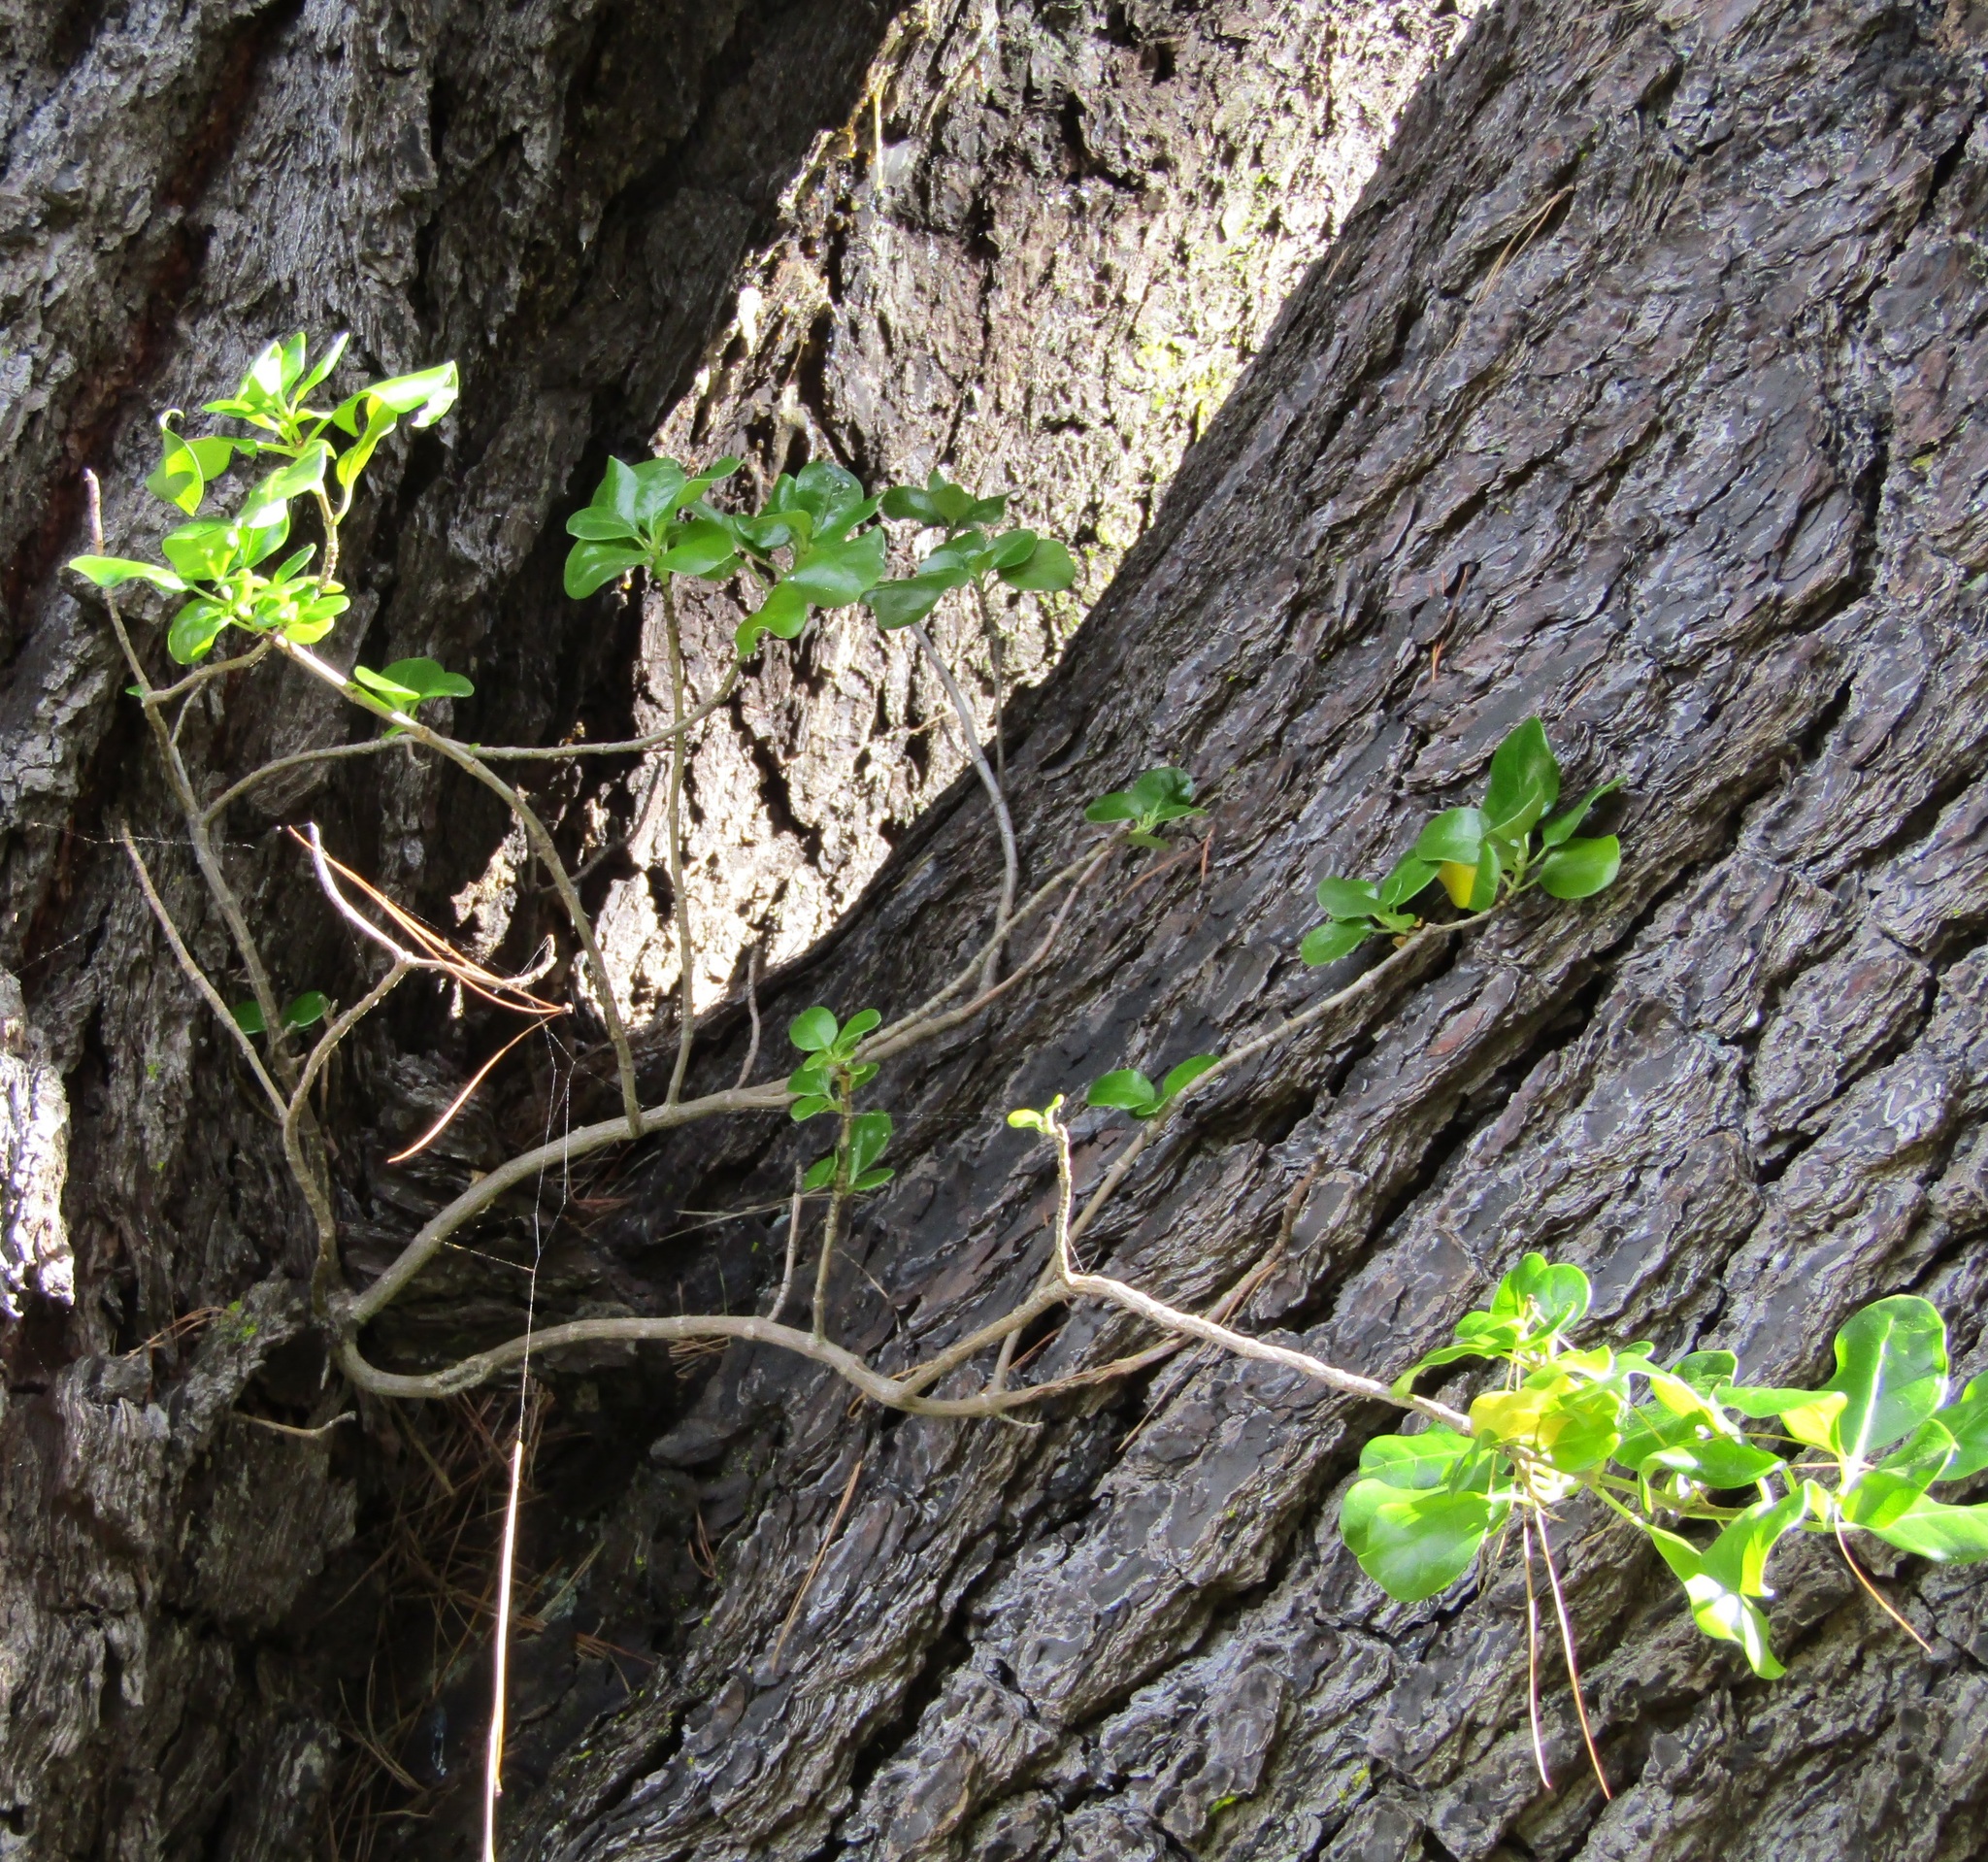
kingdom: Plantae
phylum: Tracheophyta
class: Magnoliopsida
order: Gentianales
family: Rubiaceae
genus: Coprosma
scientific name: Coprosma repens
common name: Tree bedstraw
